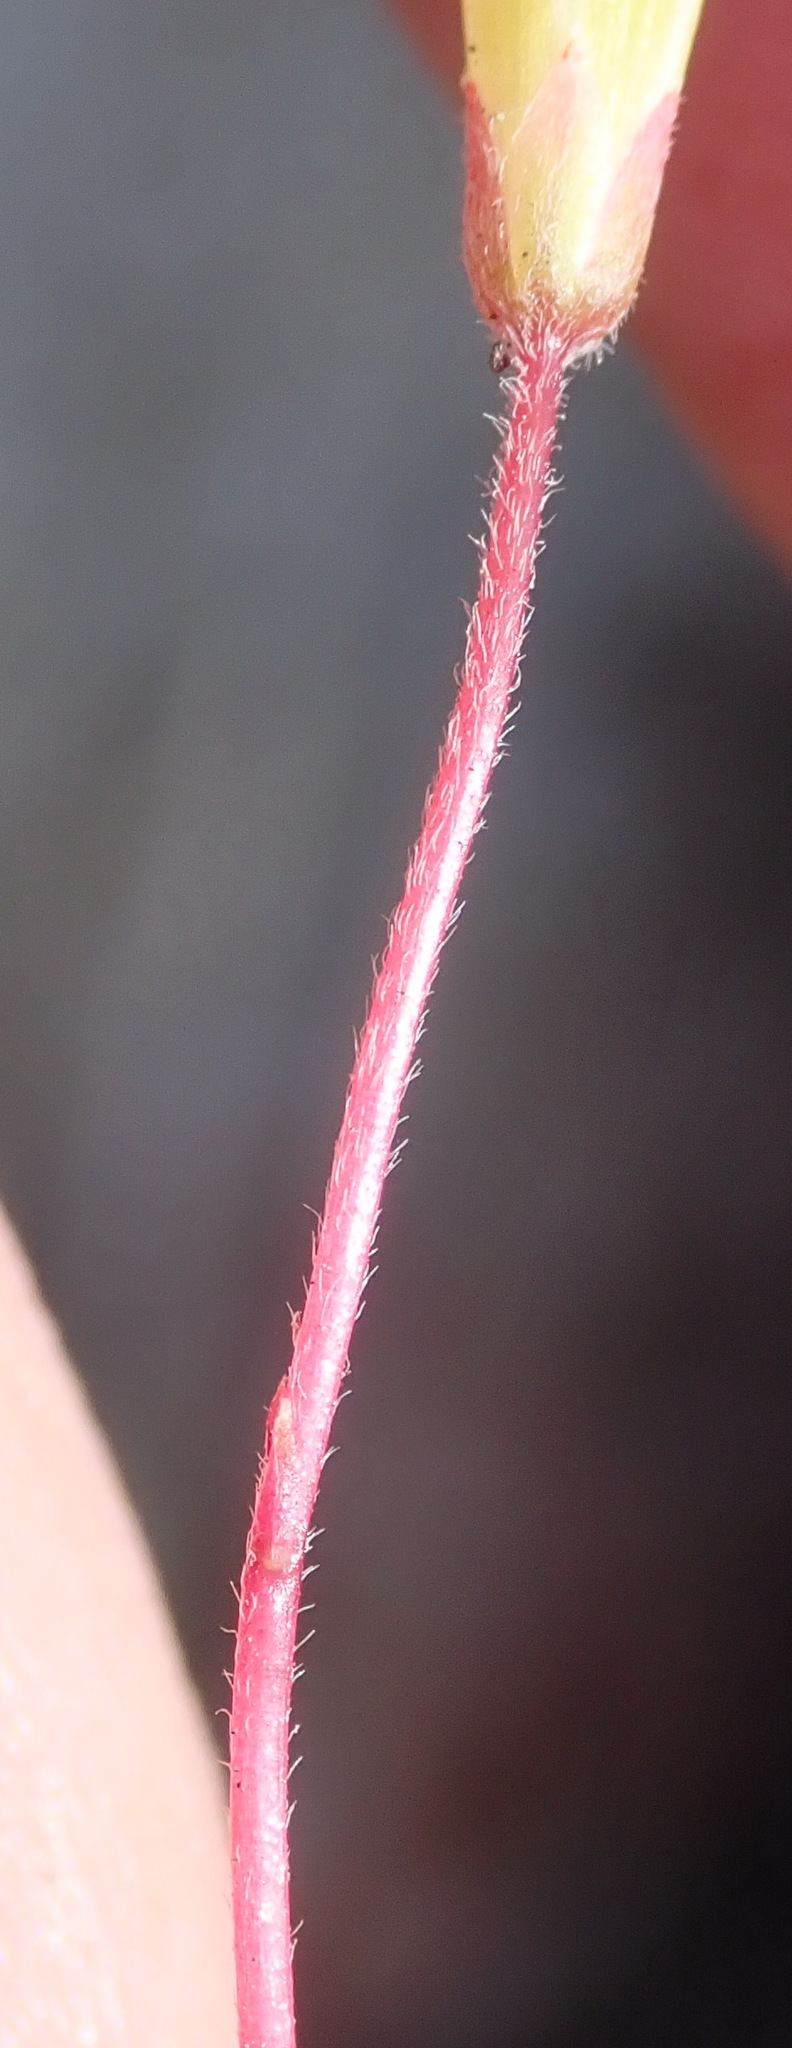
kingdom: Plantae
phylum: Tracheophyta
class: Magnoliopsida
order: Oxalidales
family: Oxalidaceae
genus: Oxalis
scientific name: Oxalis imbricata
